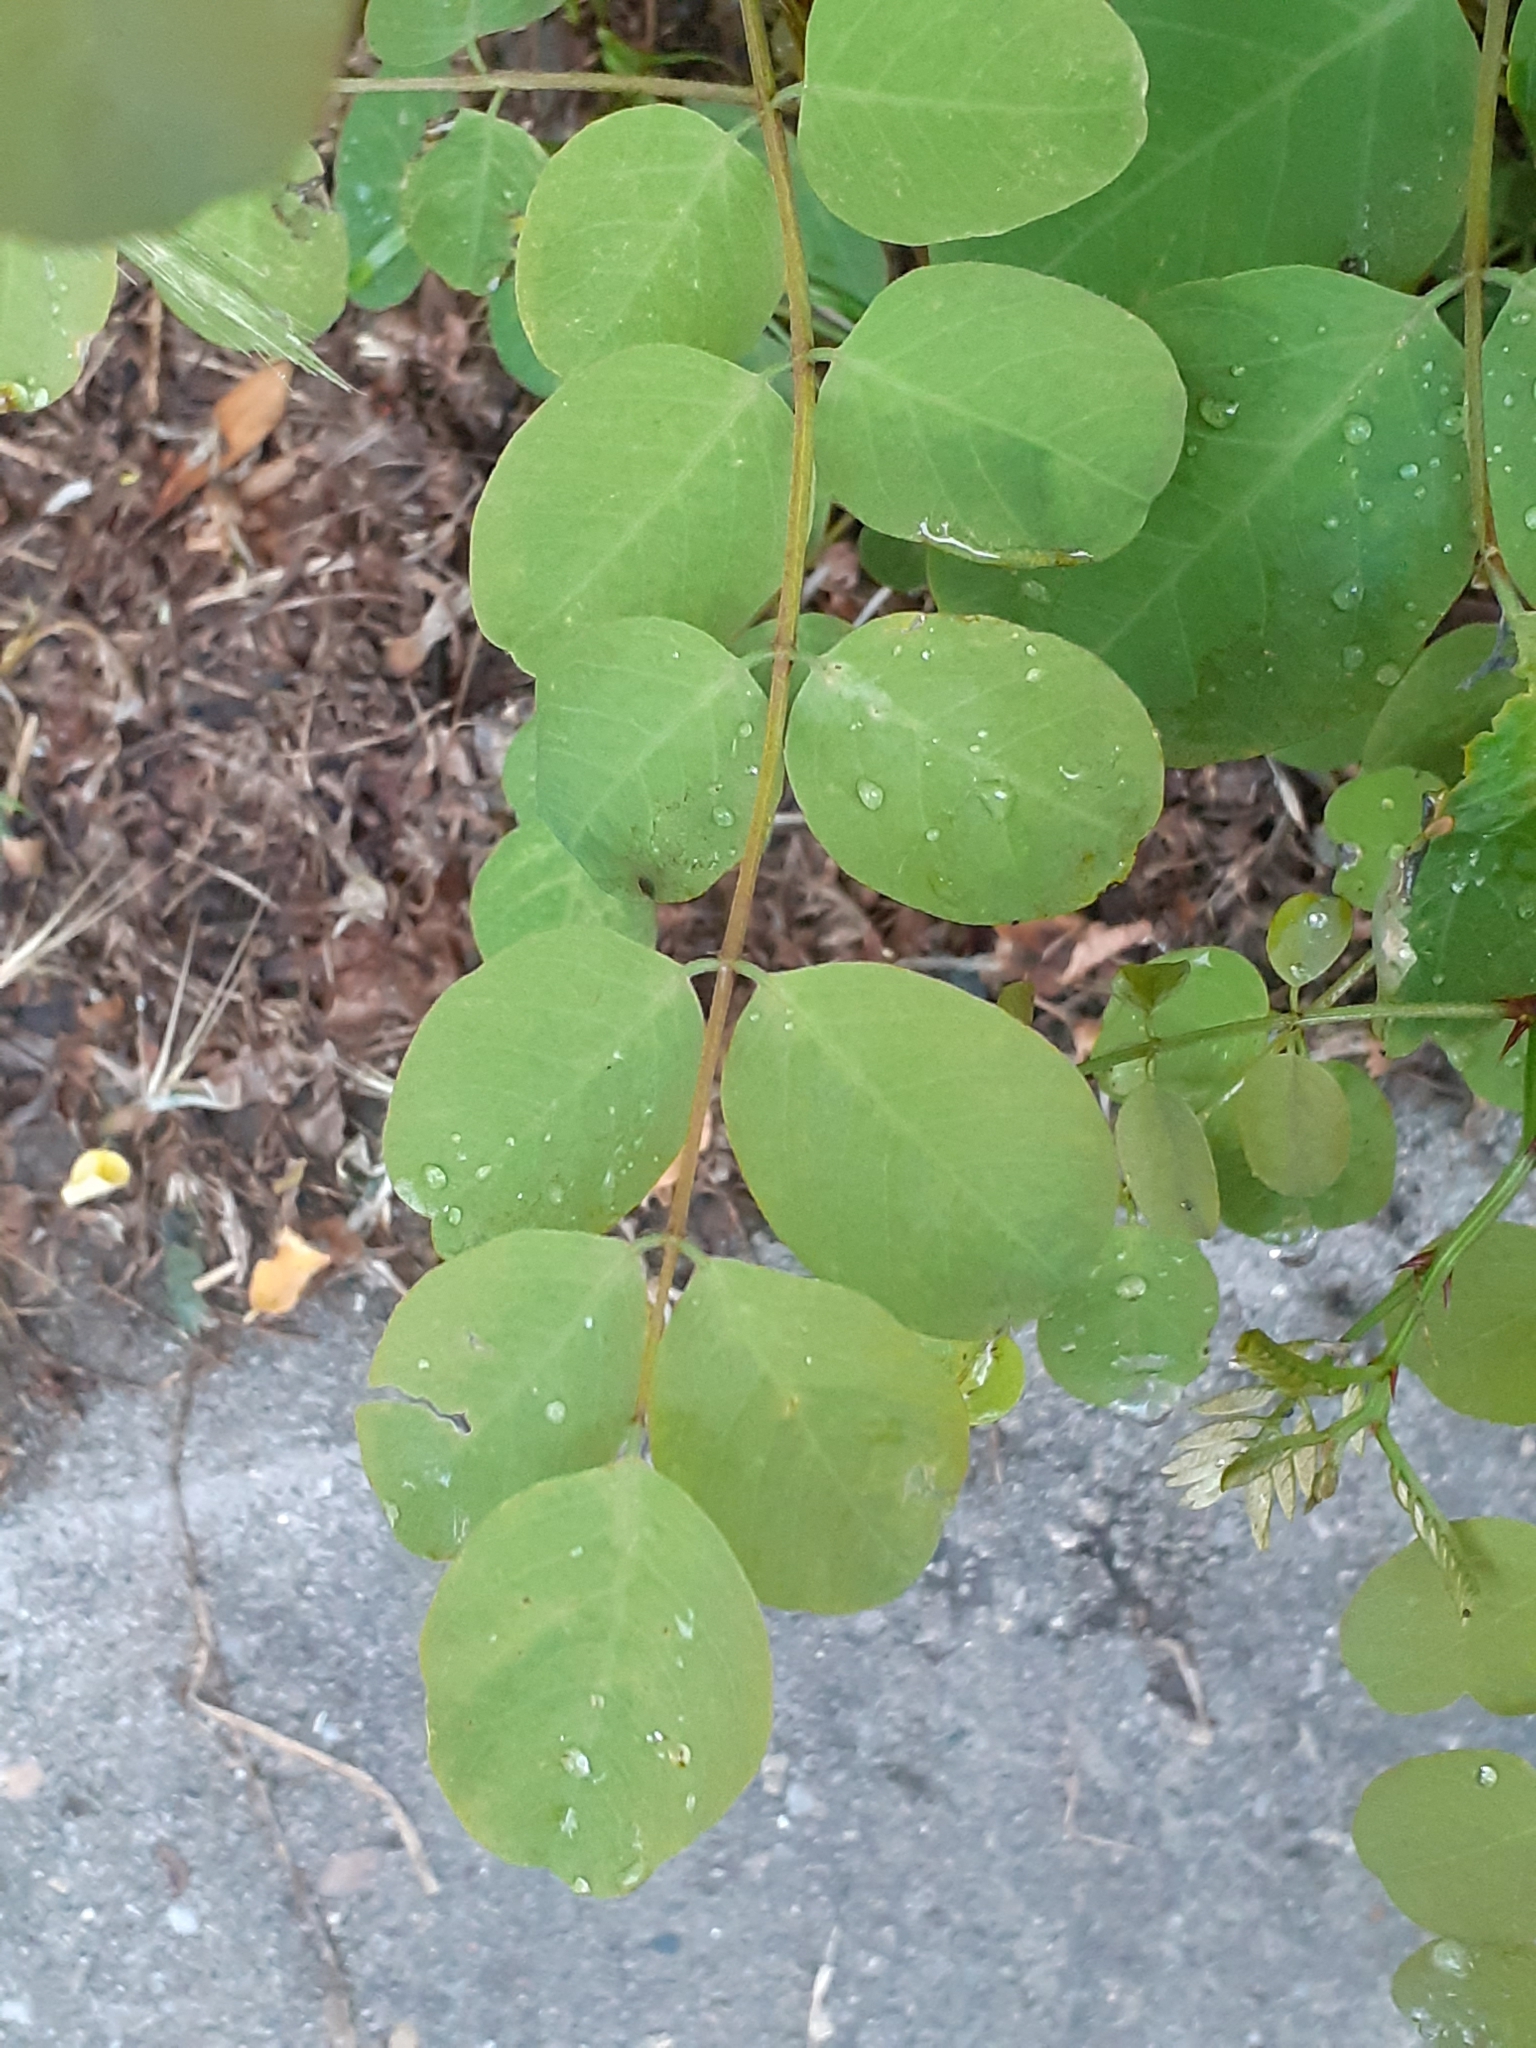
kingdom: Plantae
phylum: Tracheophyta
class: Magnoliopsida
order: Fabales
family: Fabaceae
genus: Robinia
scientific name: Robinia pseudoacacia
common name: Black locust
